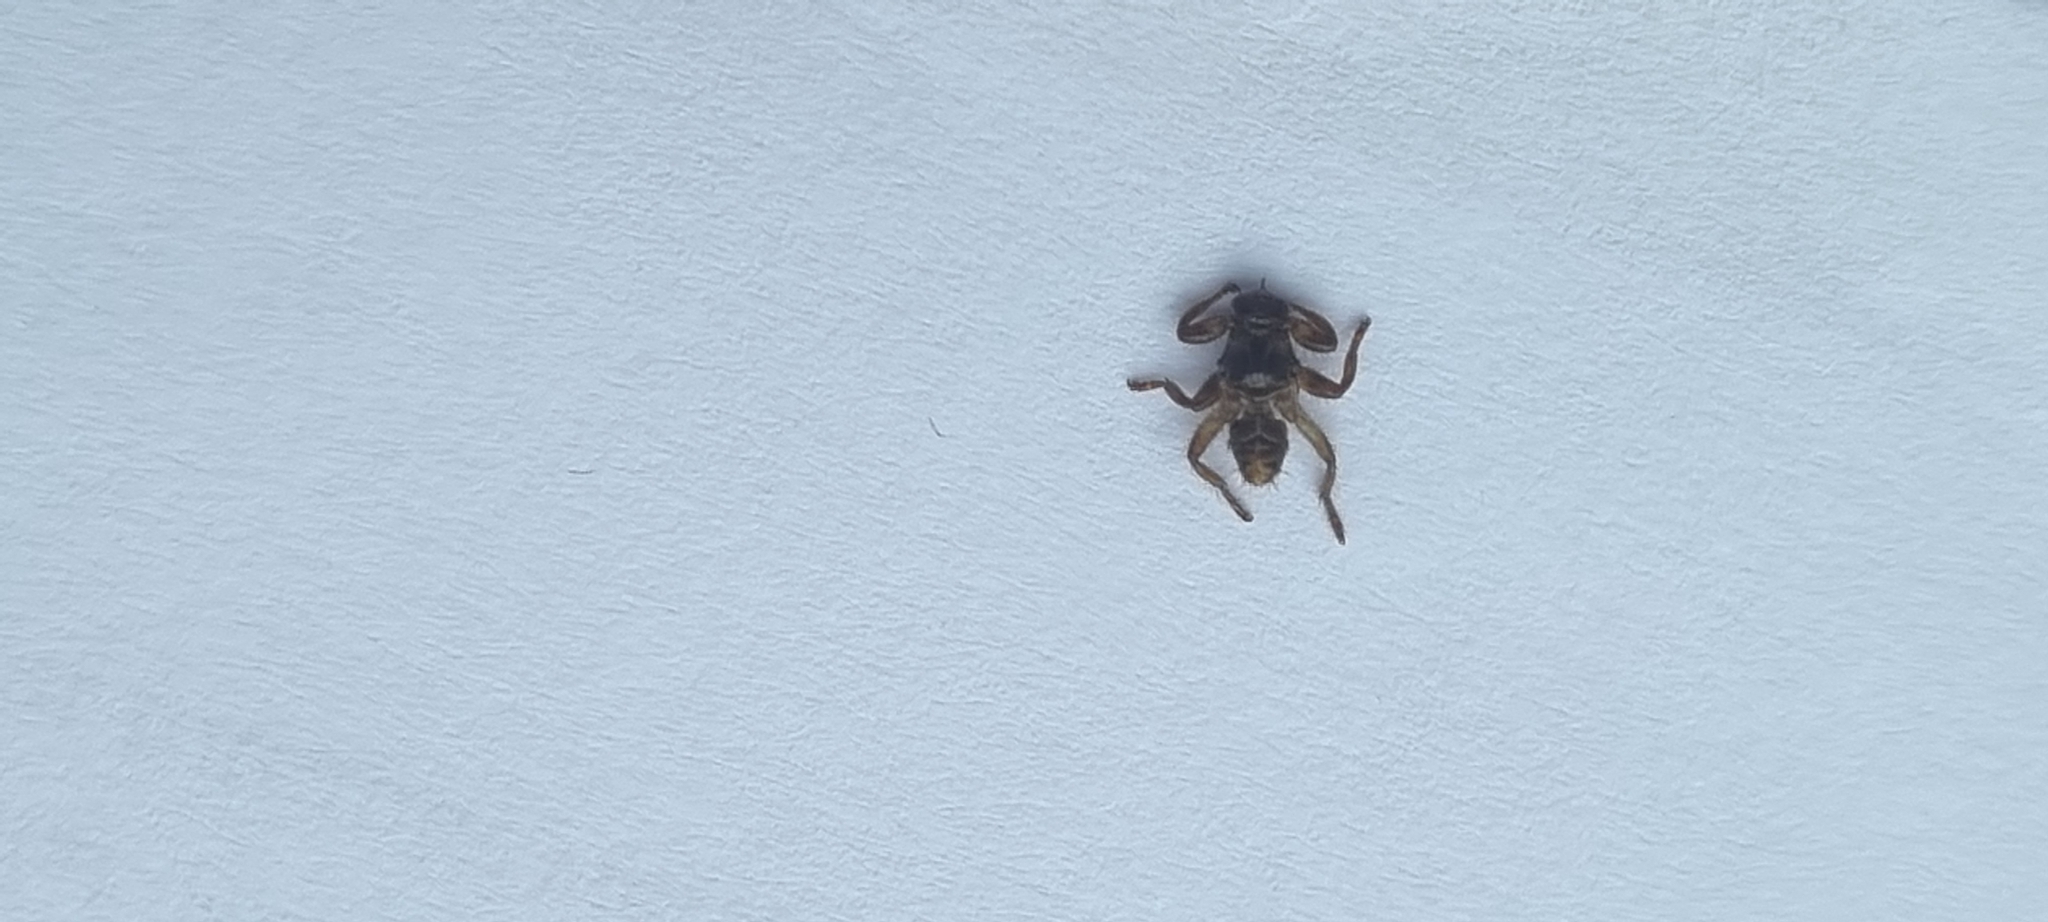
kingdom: Animalia
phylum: Arthropoda
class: Insecta
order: Diptera
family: Hippoboscidae
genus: Lipoptena
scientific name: Lipoptena cervi
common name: Deer ked
